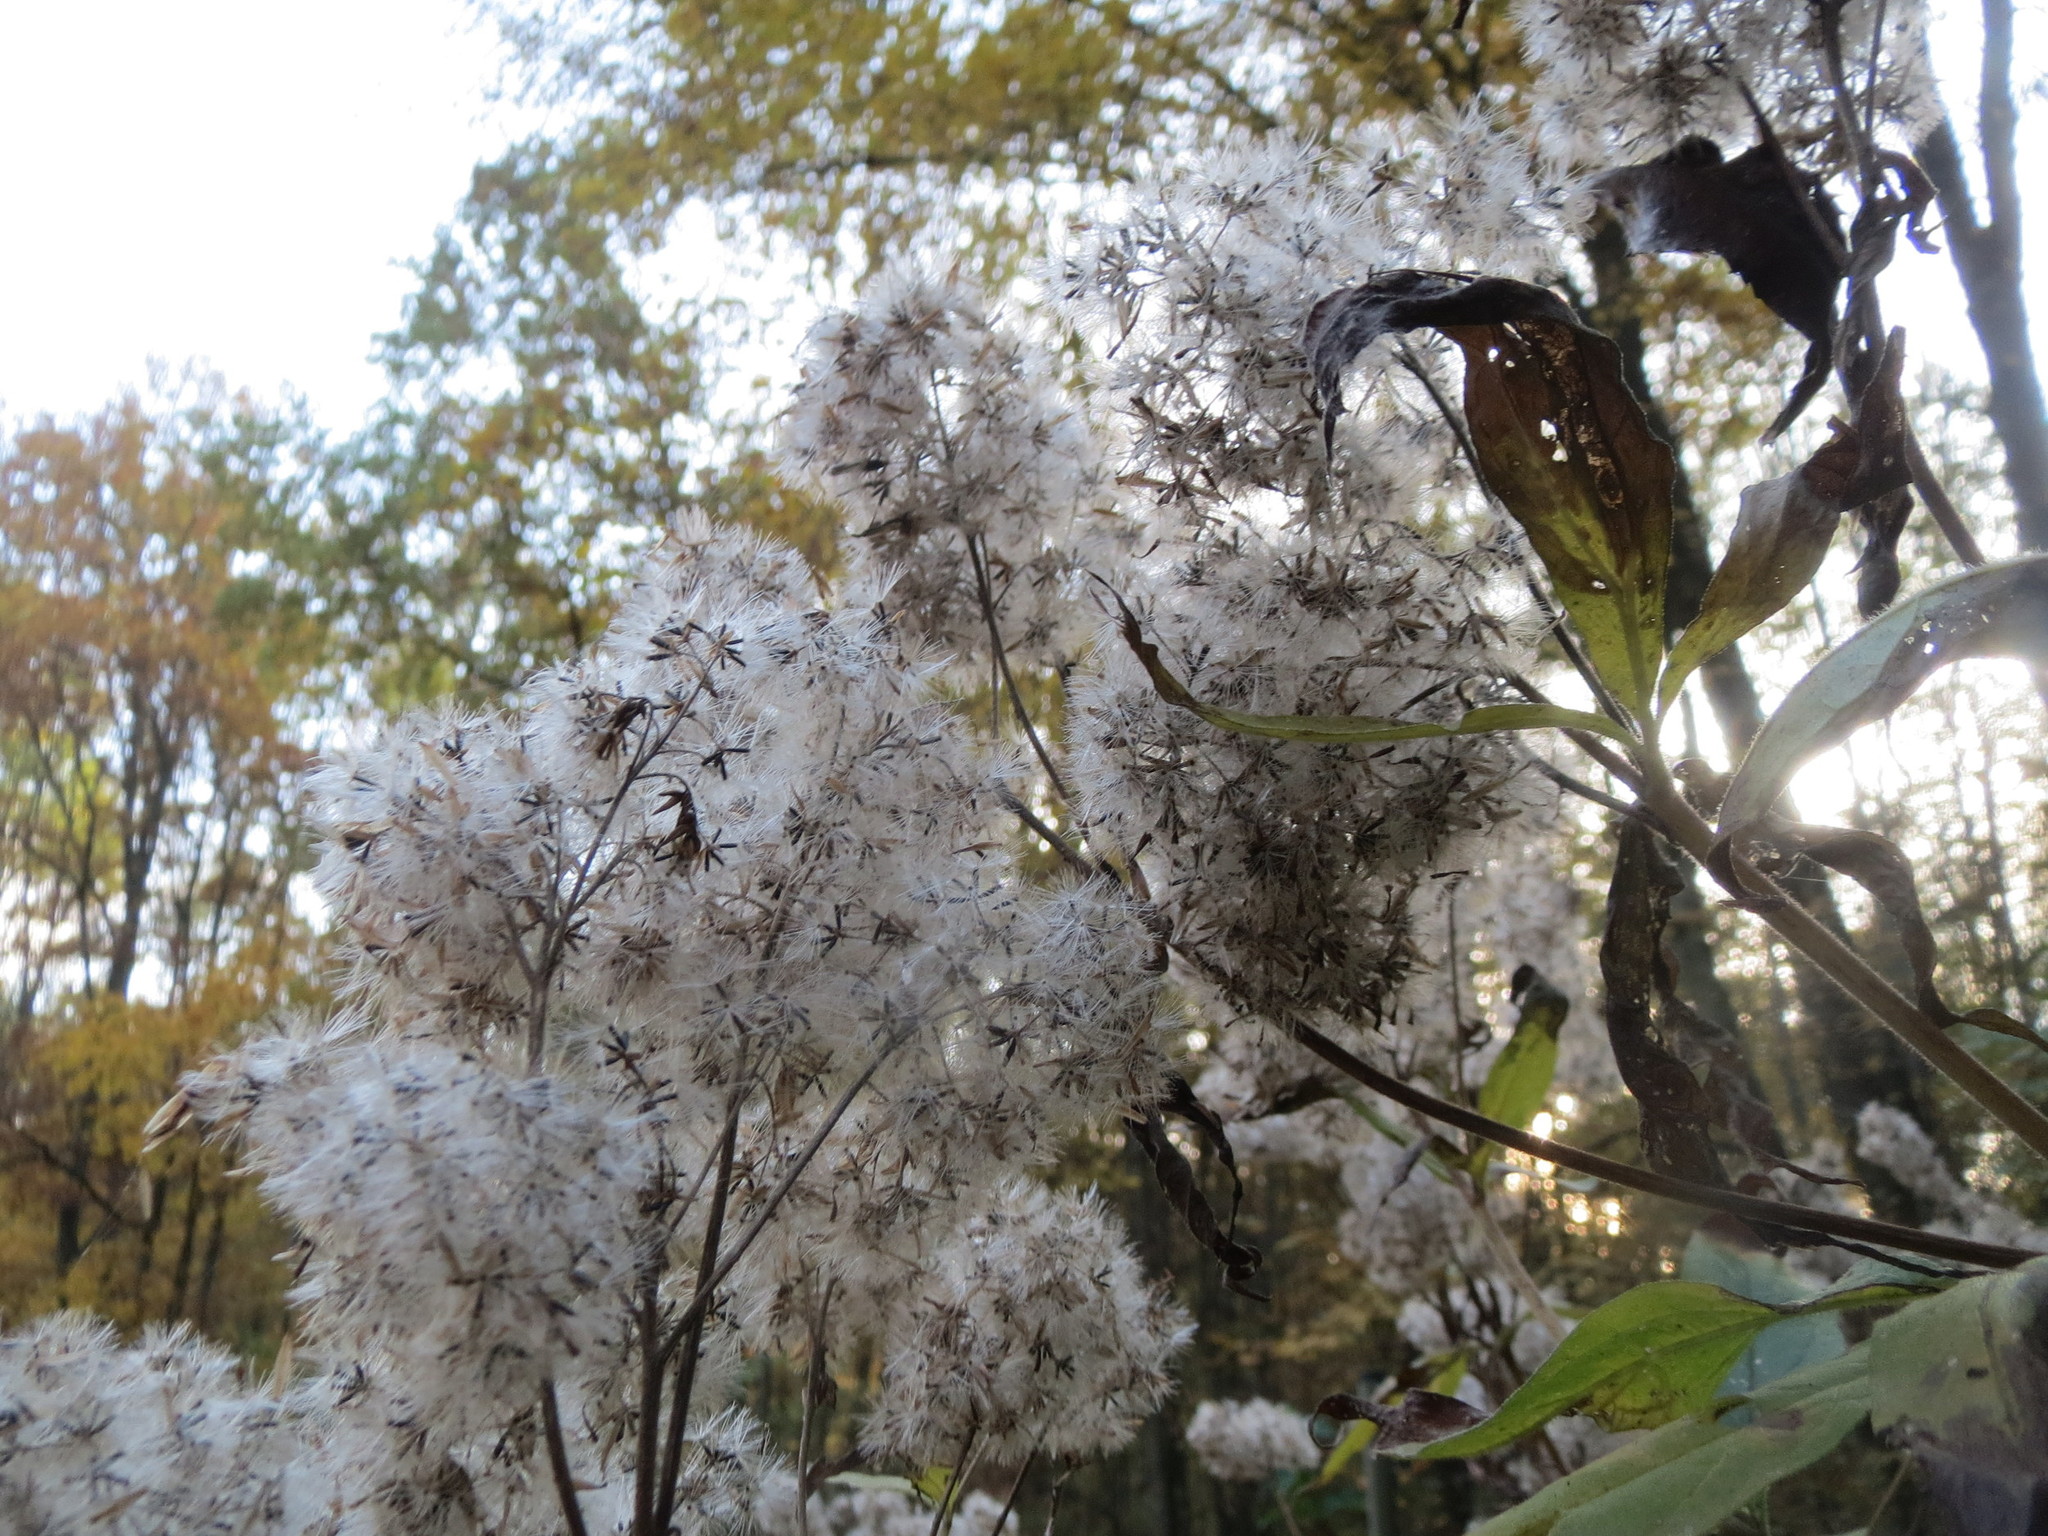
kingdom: Plantae
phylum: Tracheophyta
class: Magnoliopsida
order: Asterales
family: Asteraceae
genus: Eupatorium
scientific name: Eupatorium cannabinum
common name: Hemp-agrimony
